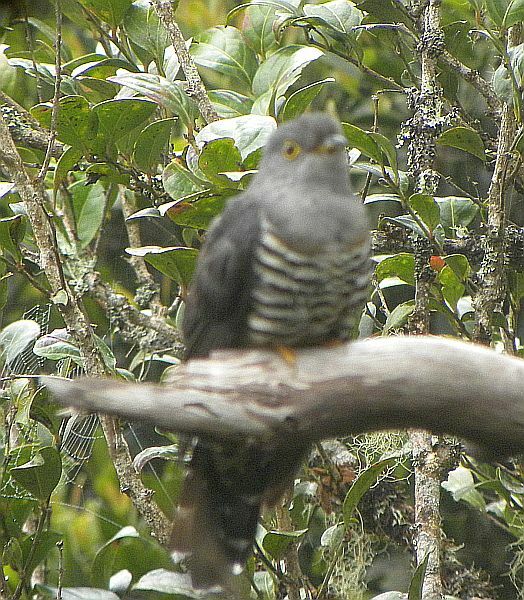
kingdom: Animalia
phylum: Chordata
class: Aves
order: Cuculiformes
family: Cuculidae
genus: Cuculus
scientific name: Cuculus lepidus
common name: Sunda cuckoo
